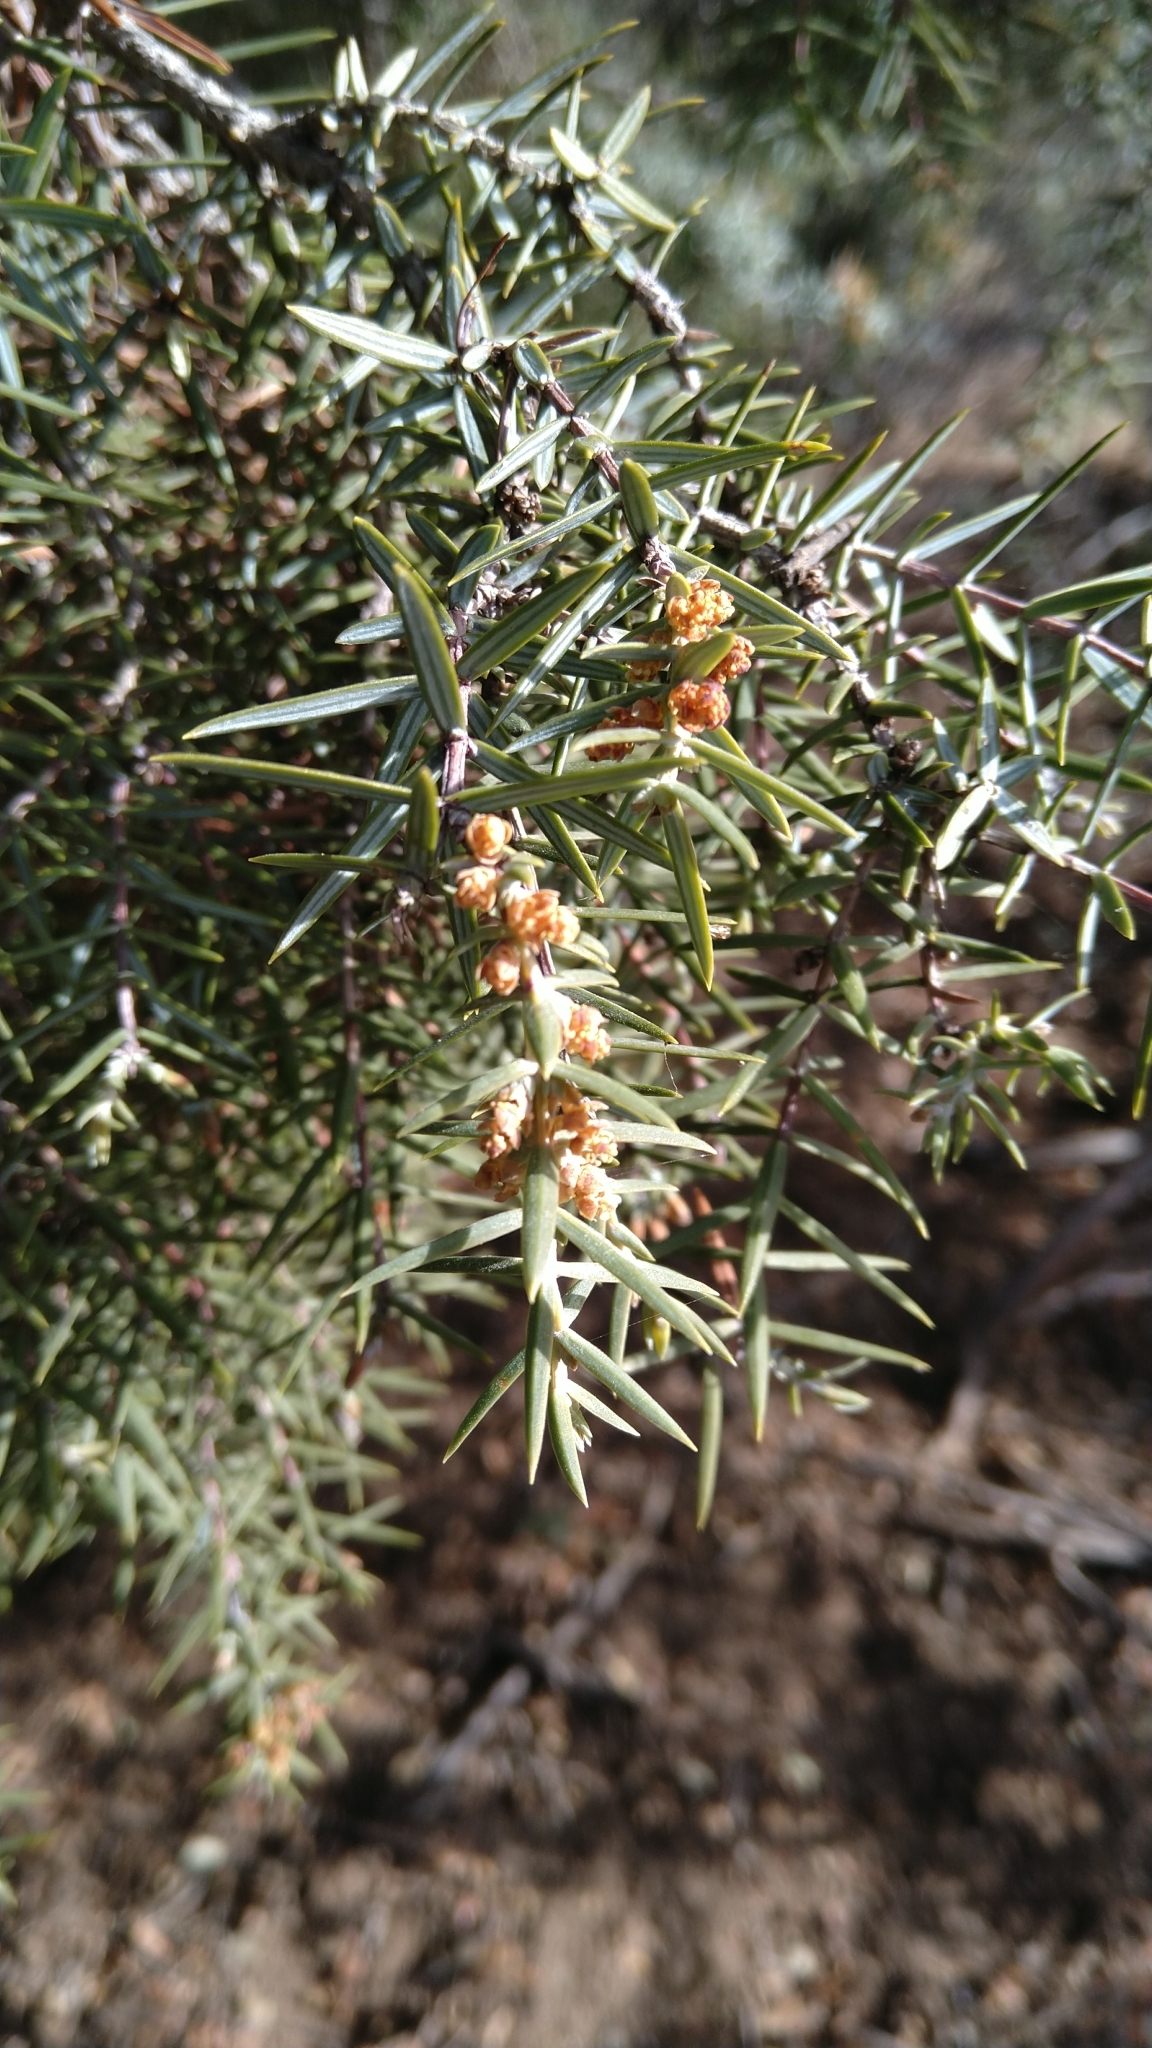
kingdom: Plantae
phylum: Tracheophyta
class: Pinopsida
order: Pinales
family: Cupressaceae
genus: Juniperus
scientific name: Juniperus oxycedrus
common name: Prickly juniper
